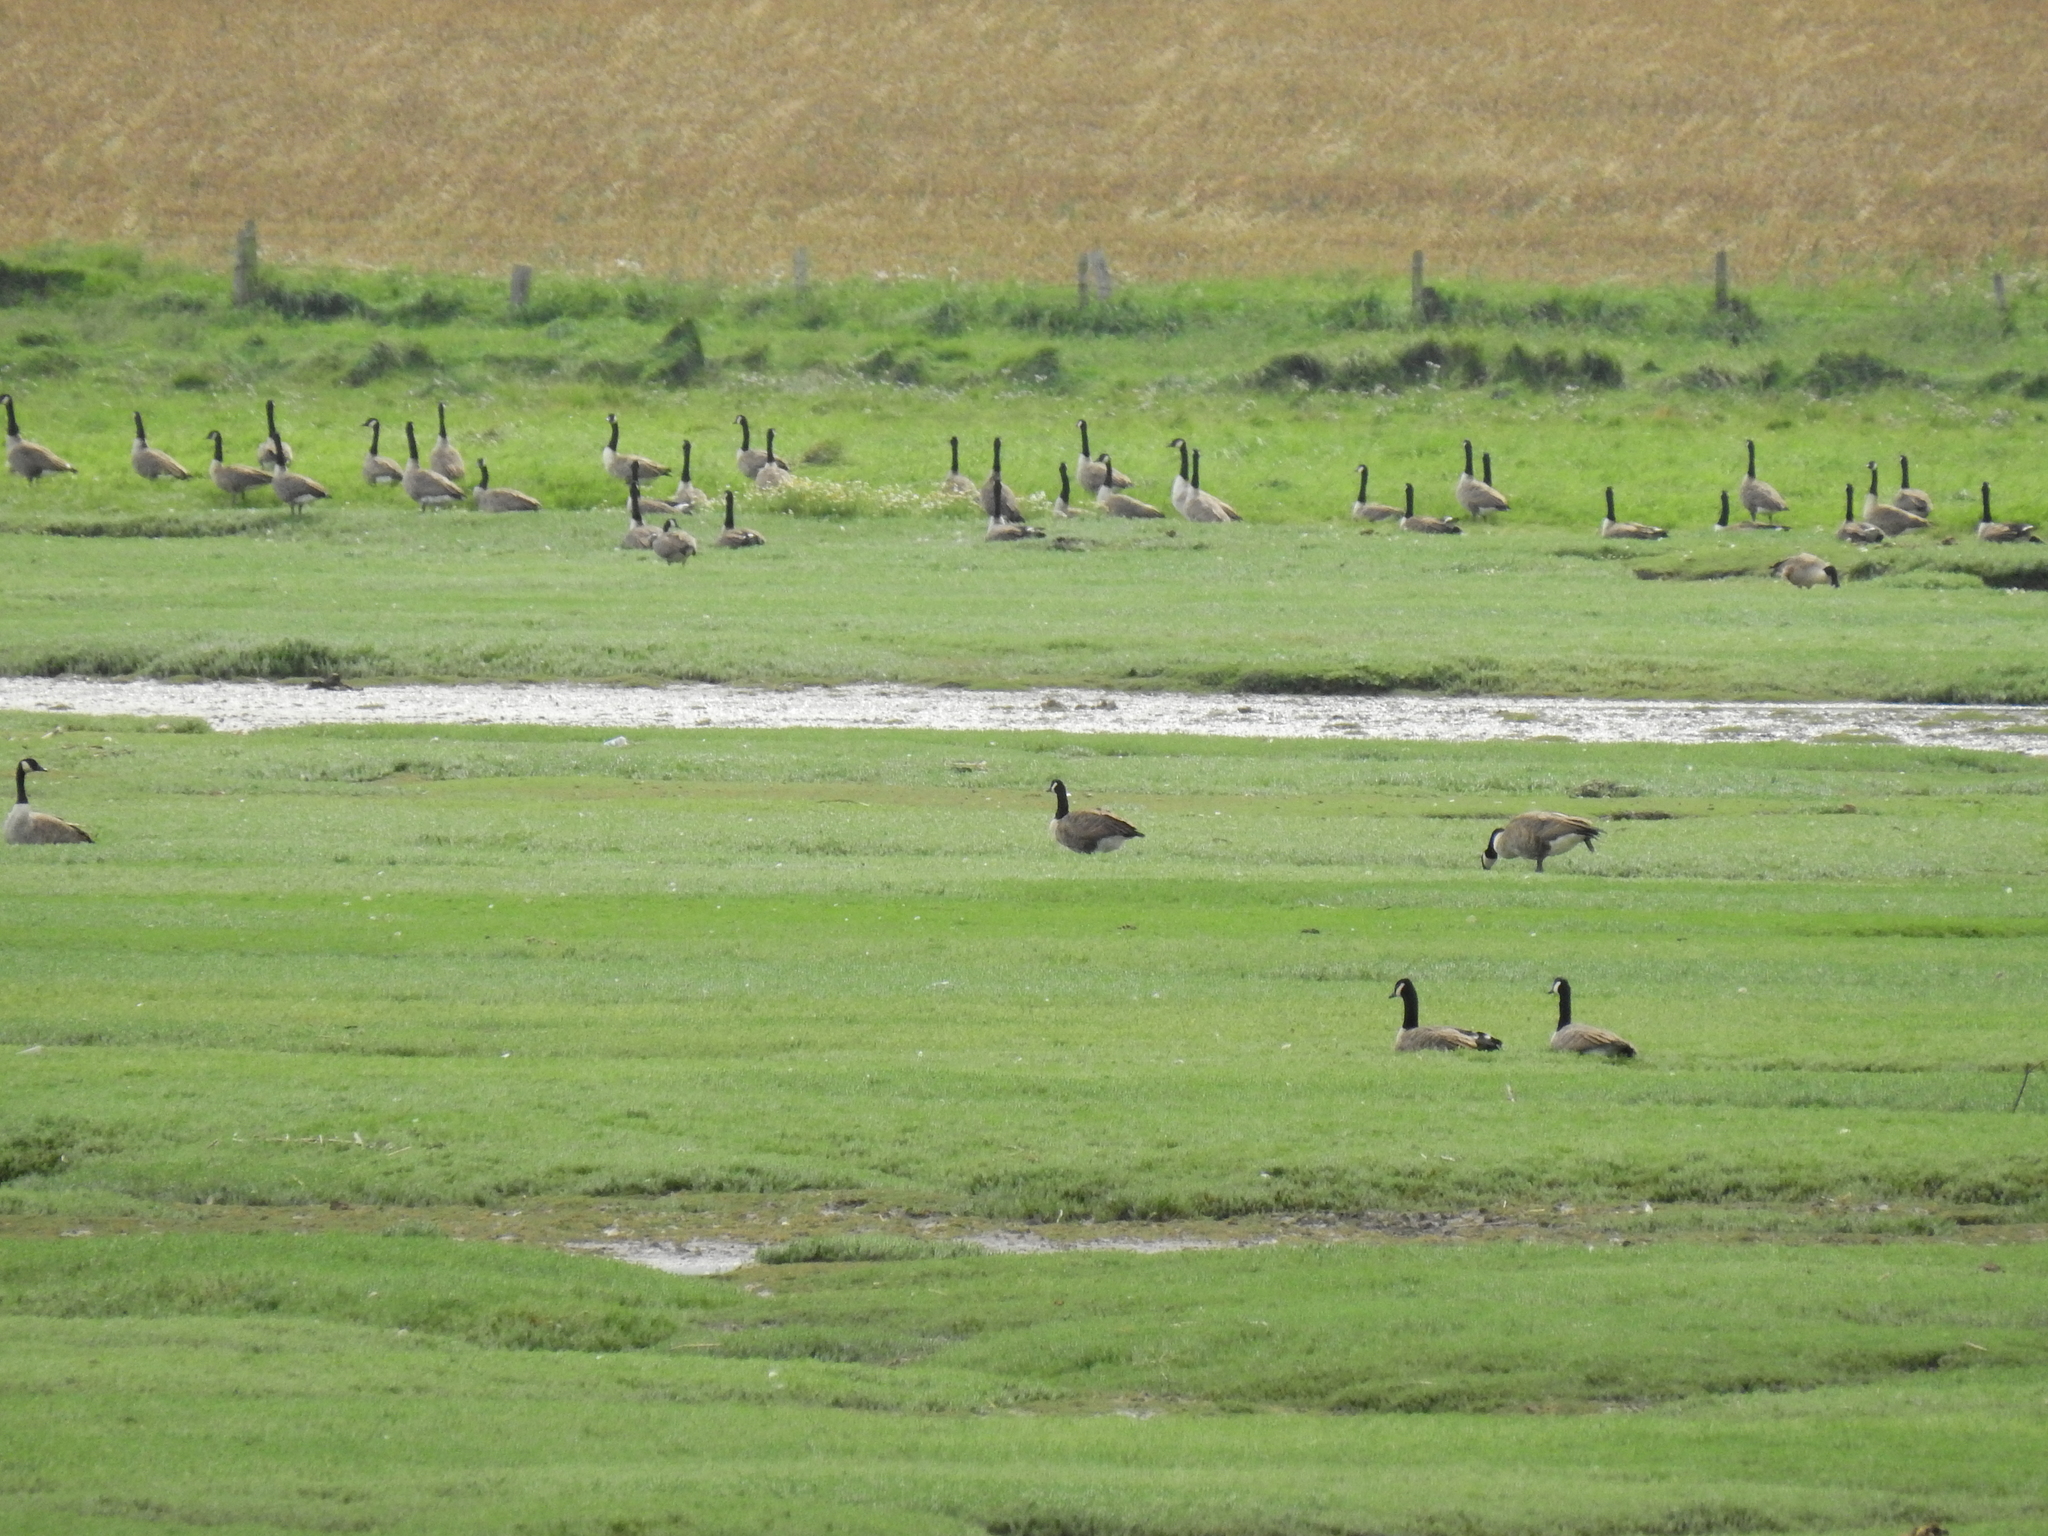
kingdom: Animalia
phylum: Chordata
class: Aves
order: Anseriformes
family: Anatidae
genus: Branta
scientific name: Branta canadensis
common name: Canada goose
